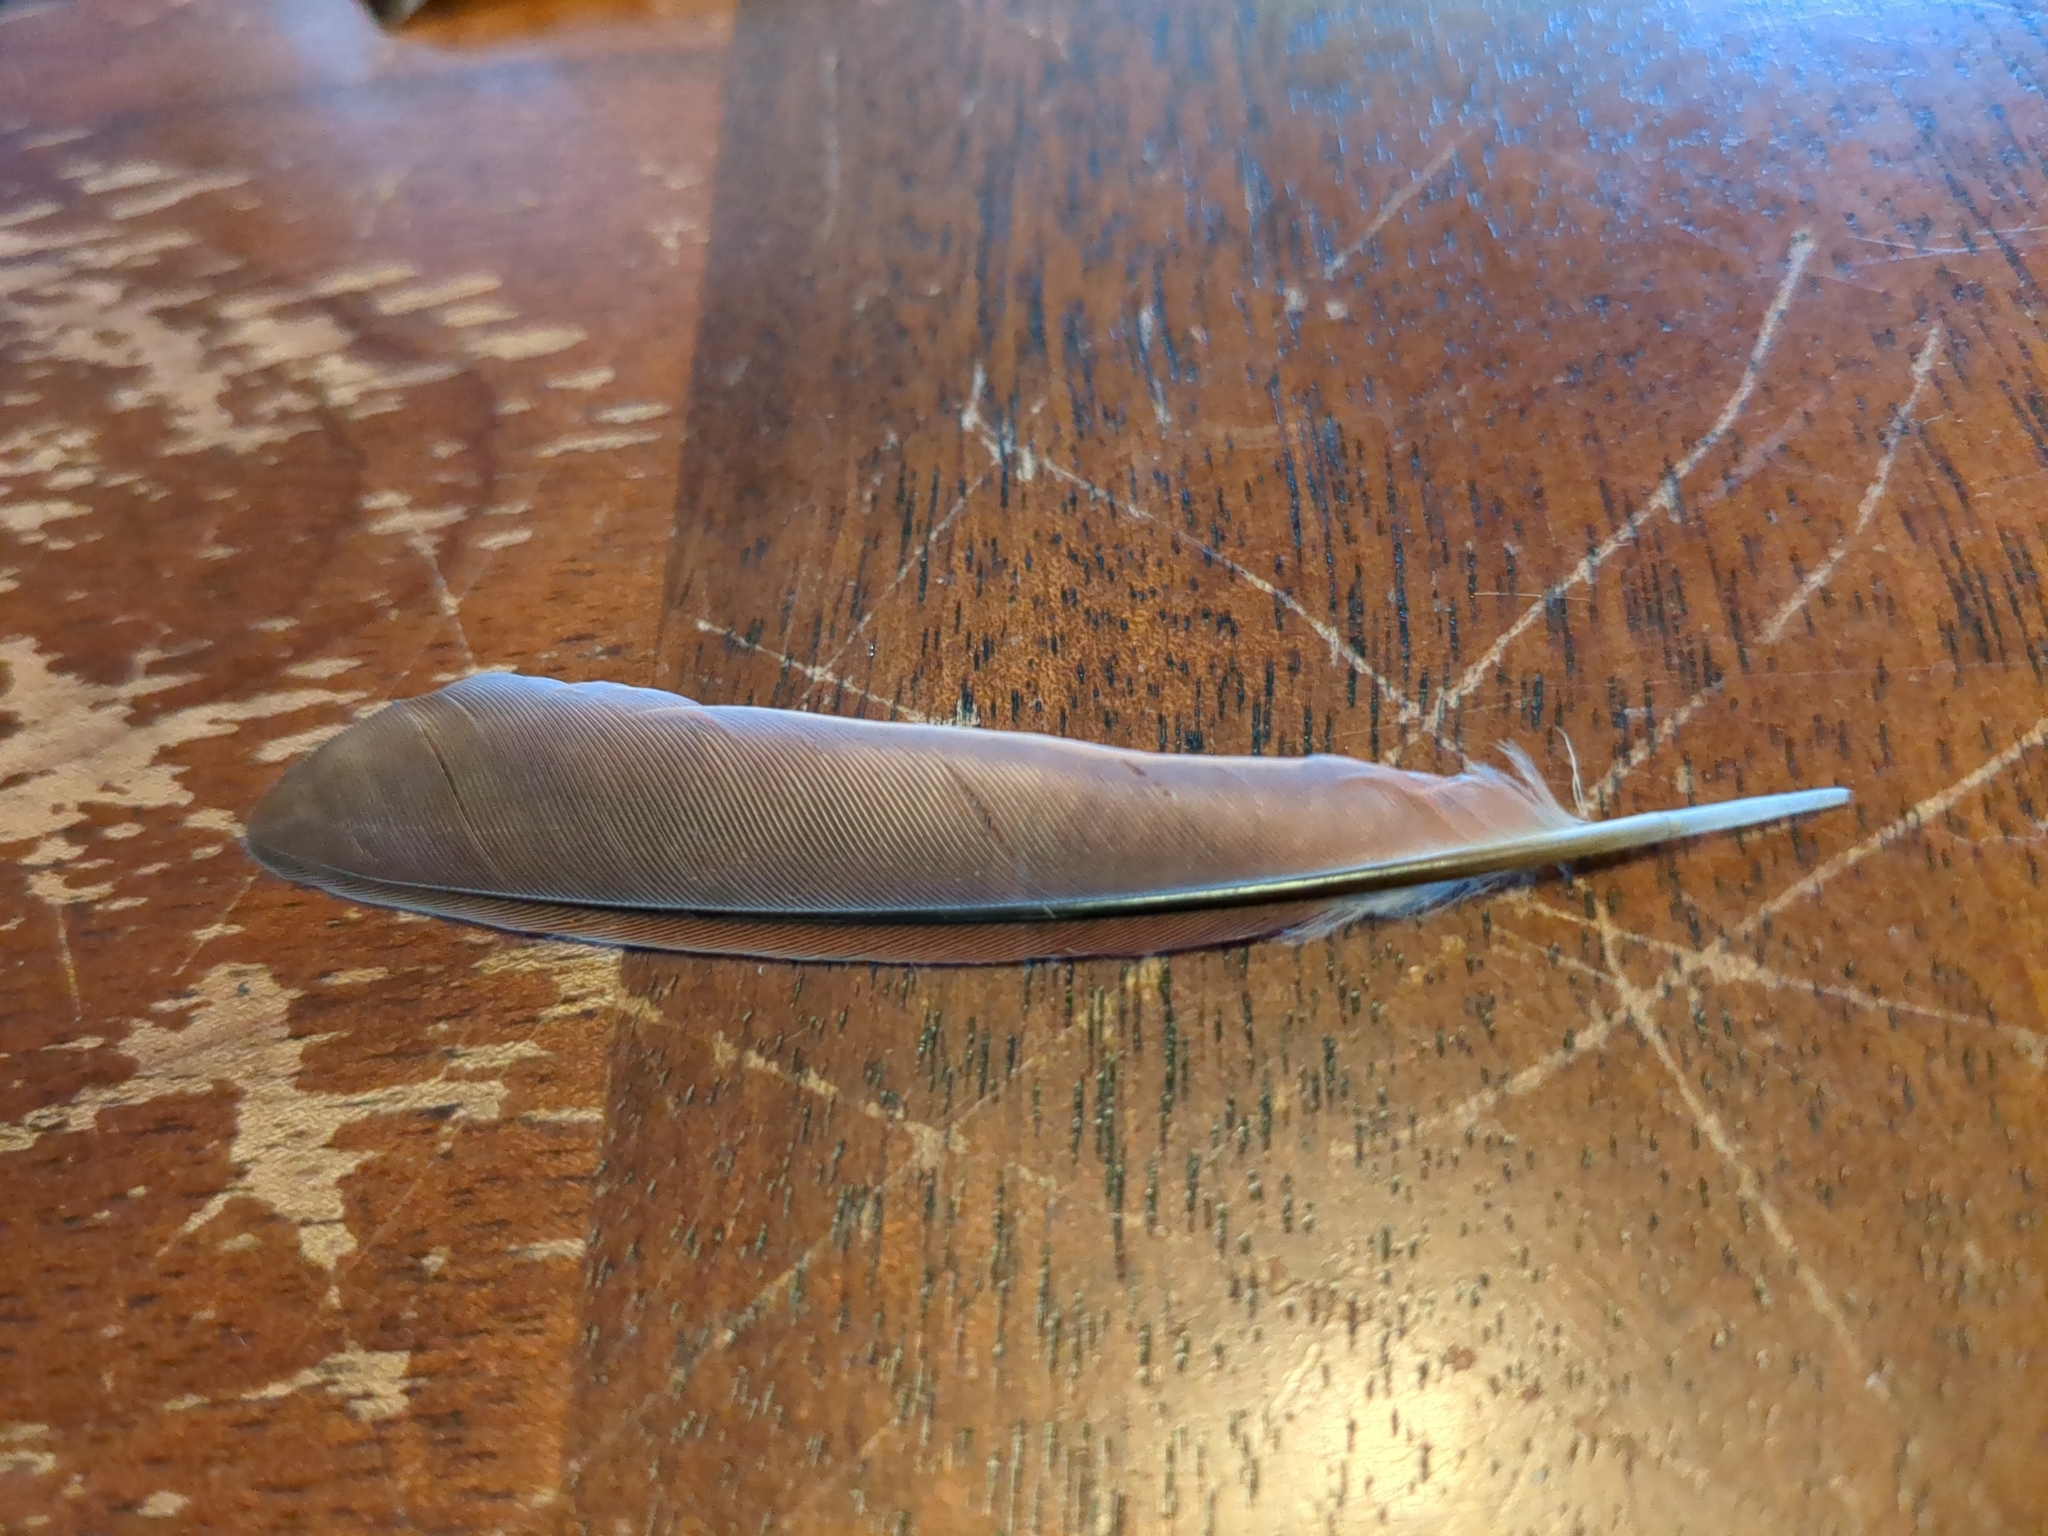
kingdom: Animalia
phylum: Chordata
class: Aves
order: Passeriformes
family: Cardinalidae
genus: Cardinalis
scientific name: Cardinalis cardinalis
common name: Northern cardinal
